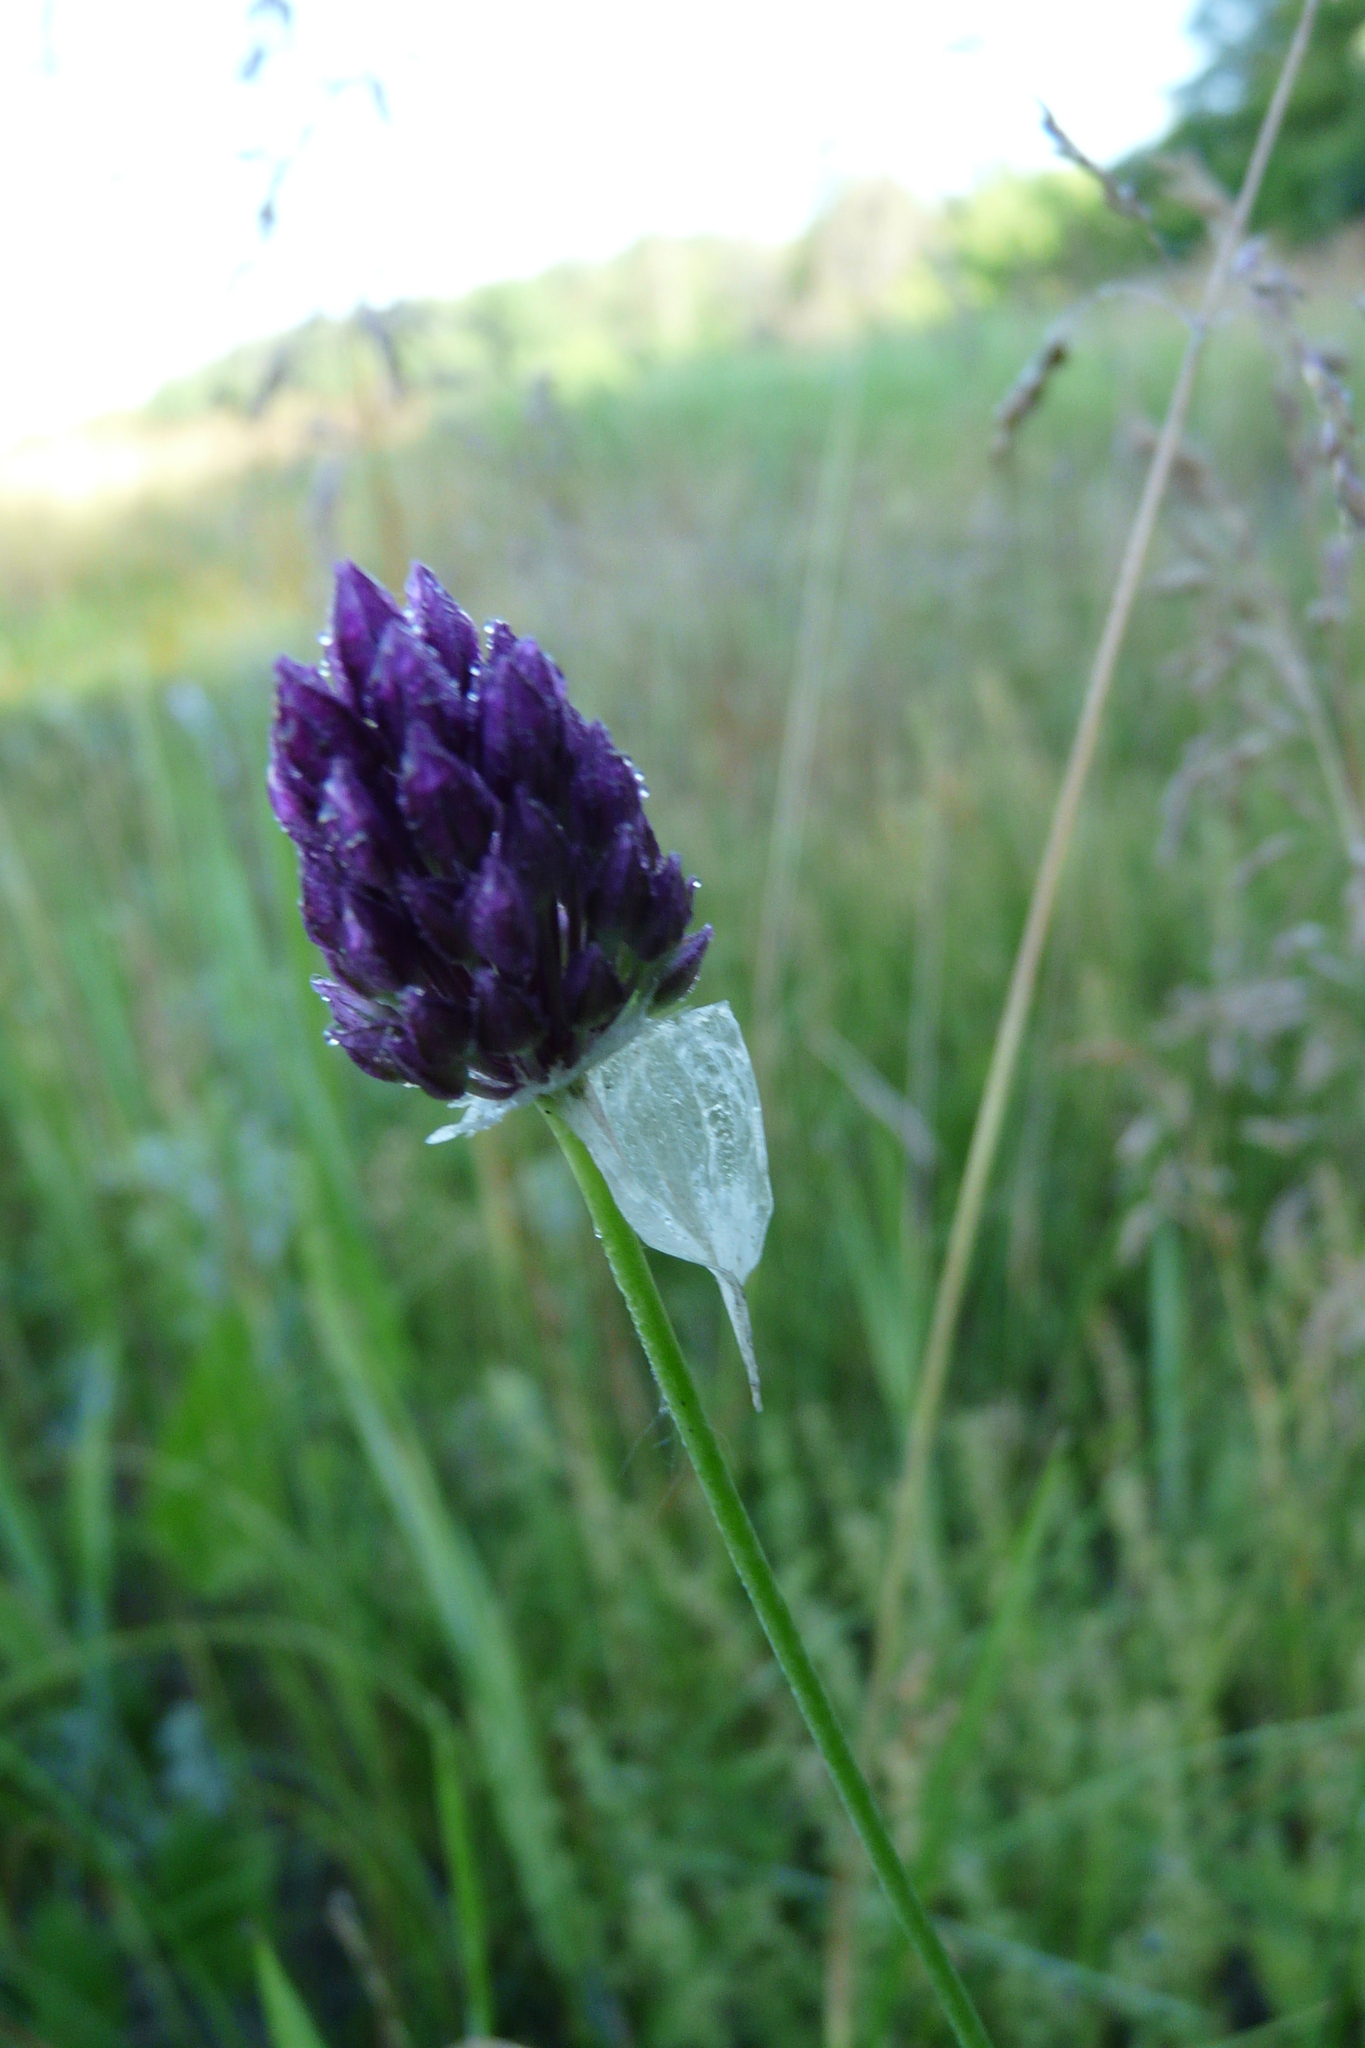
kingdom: Plantae
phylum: Tracheophyta
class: Liliopsida
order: Asparagales
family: Amaryllidaceae
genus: Allium
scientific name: Allium rotundum
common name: Sand leek
